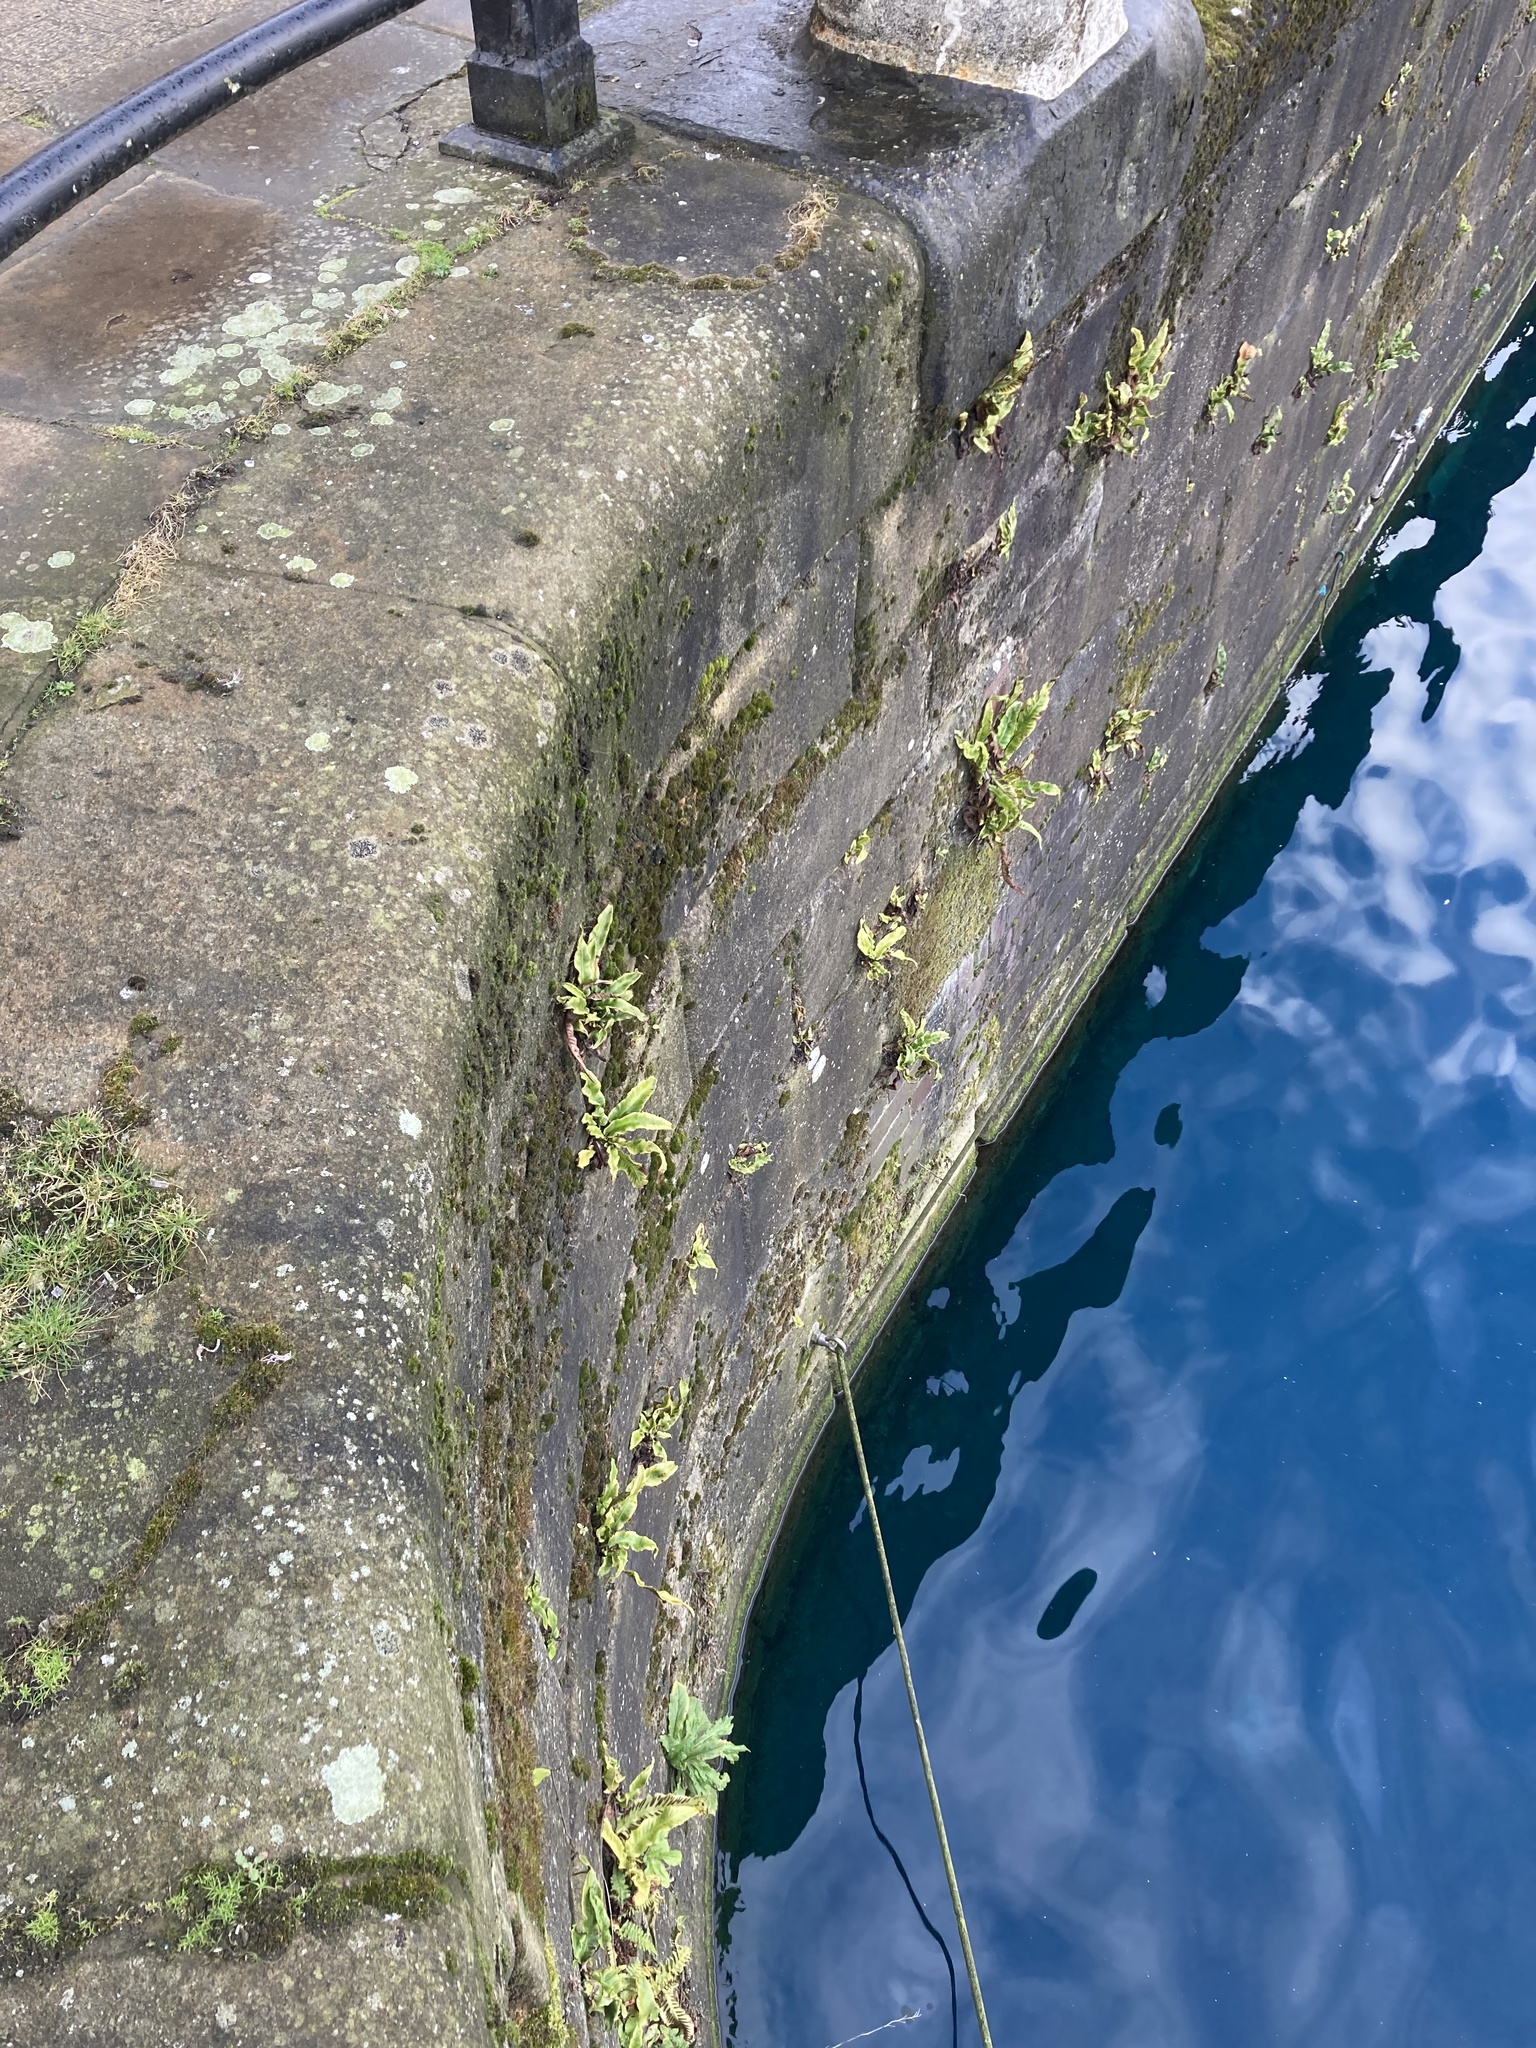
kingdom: Plantae
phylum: Tracheophyta
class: Polypodiopsida
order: Polypodiales
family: Aspleniaceae
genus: Asplenium
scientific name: Asplenium scolopendrium
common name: Hart's-tongue fern
